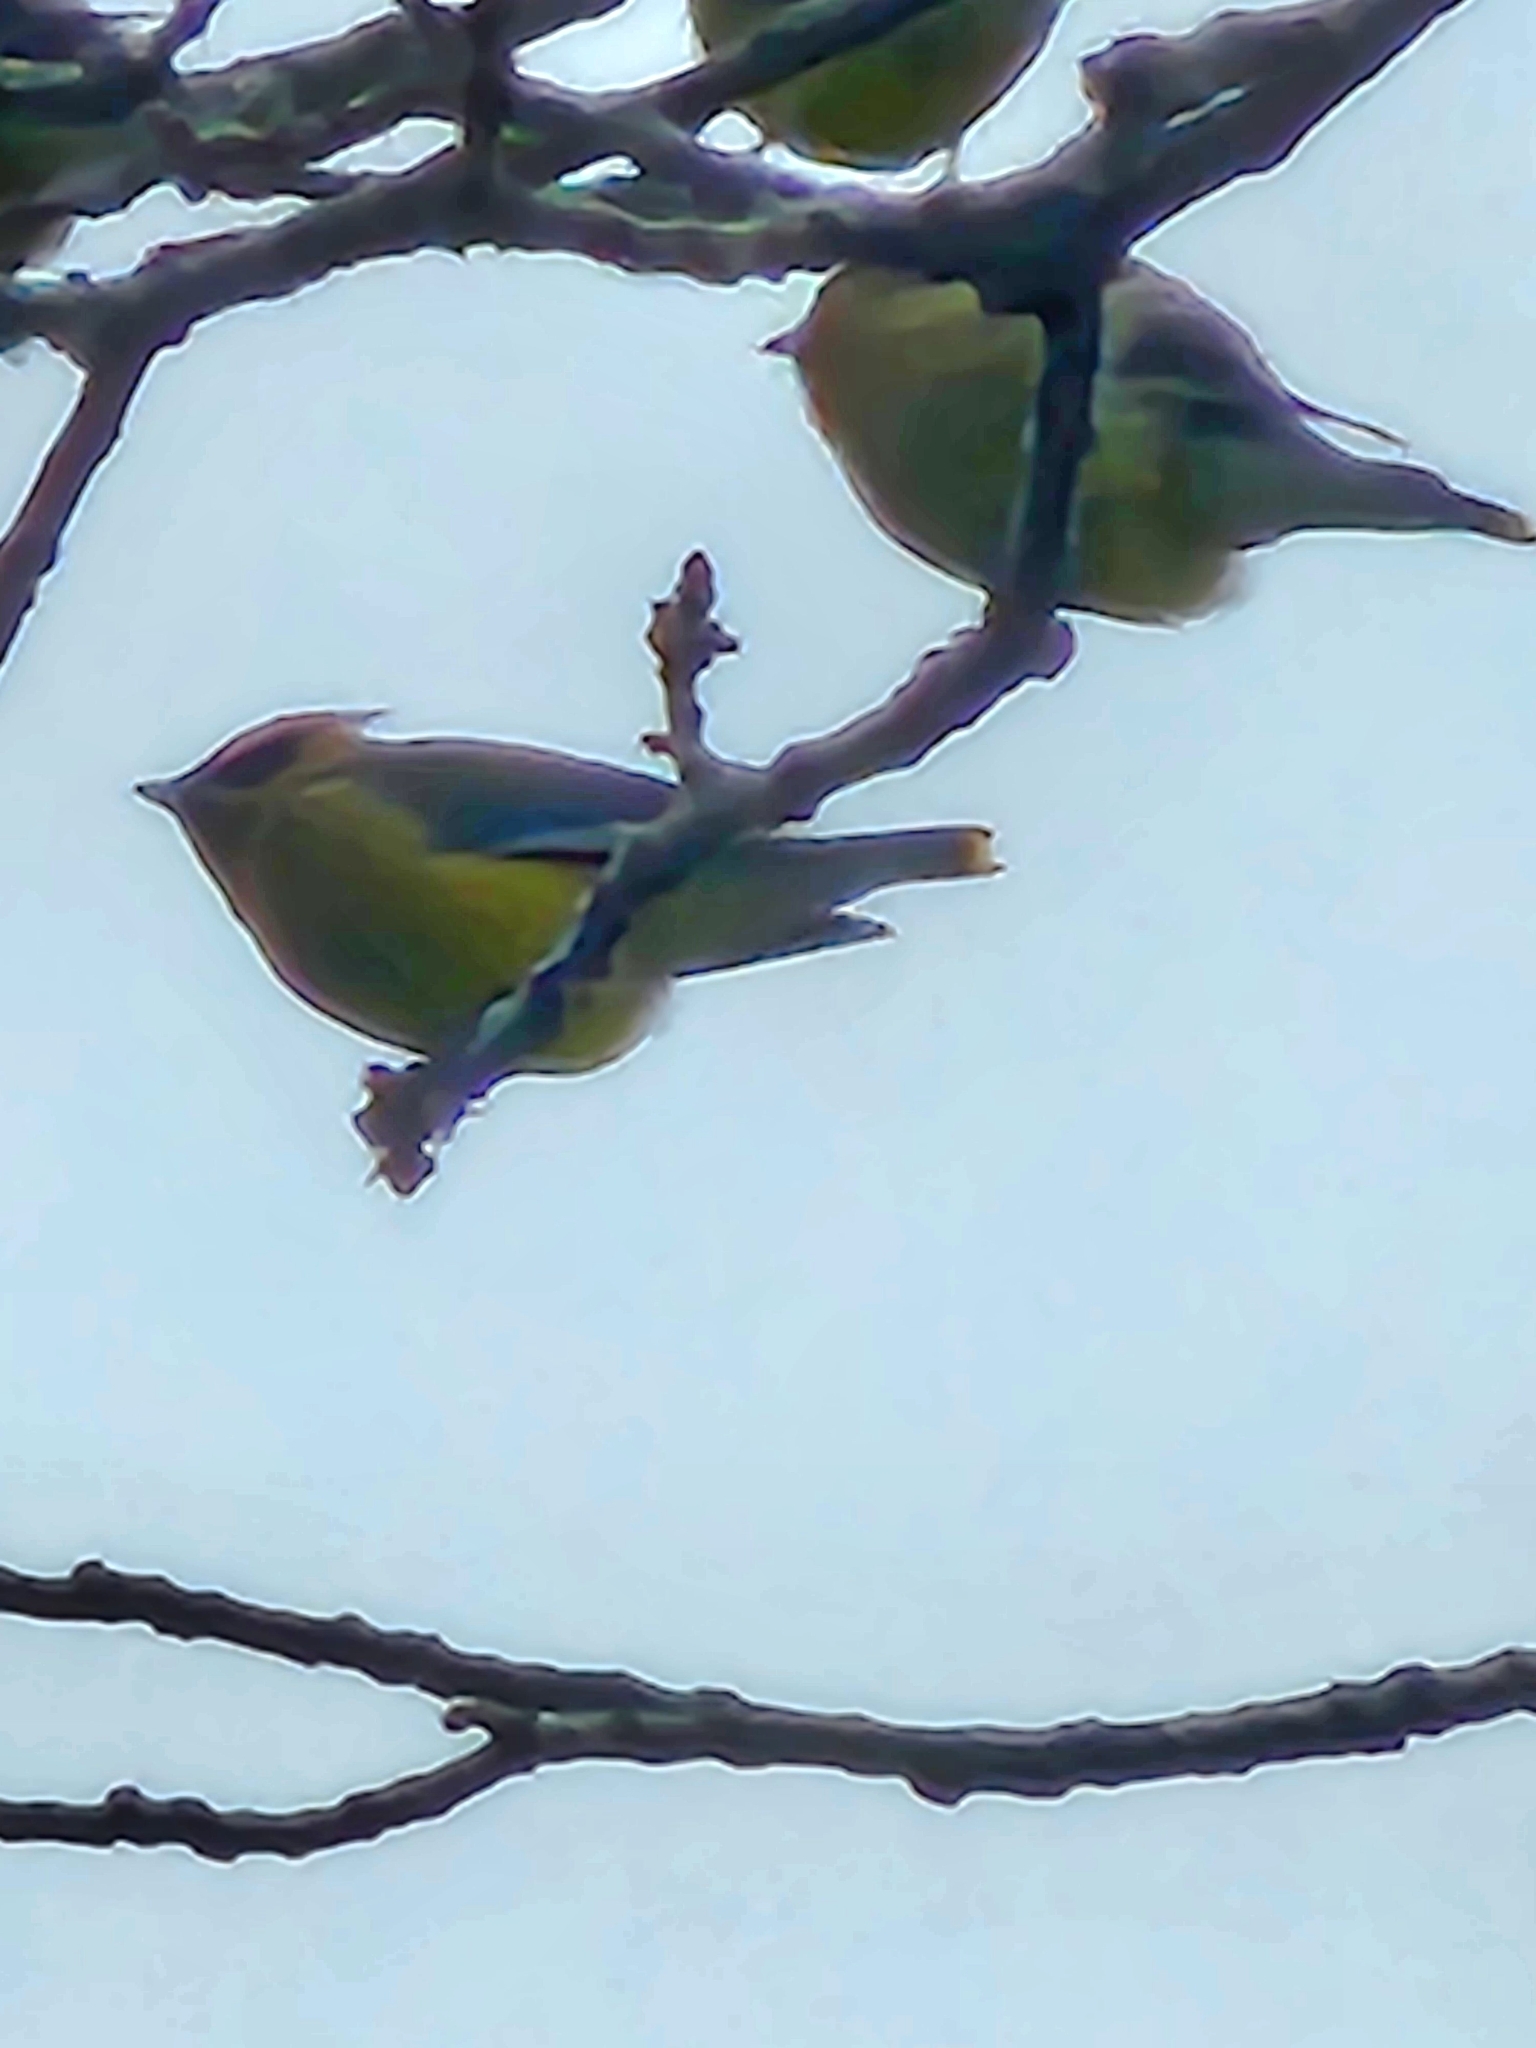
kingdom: Animalia
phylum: Chordata
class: Aves
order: Passeriformes
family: Bombycillidae
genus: Bombycilla
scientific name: Bombycilla cedrorum
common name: Cedar waxwing
